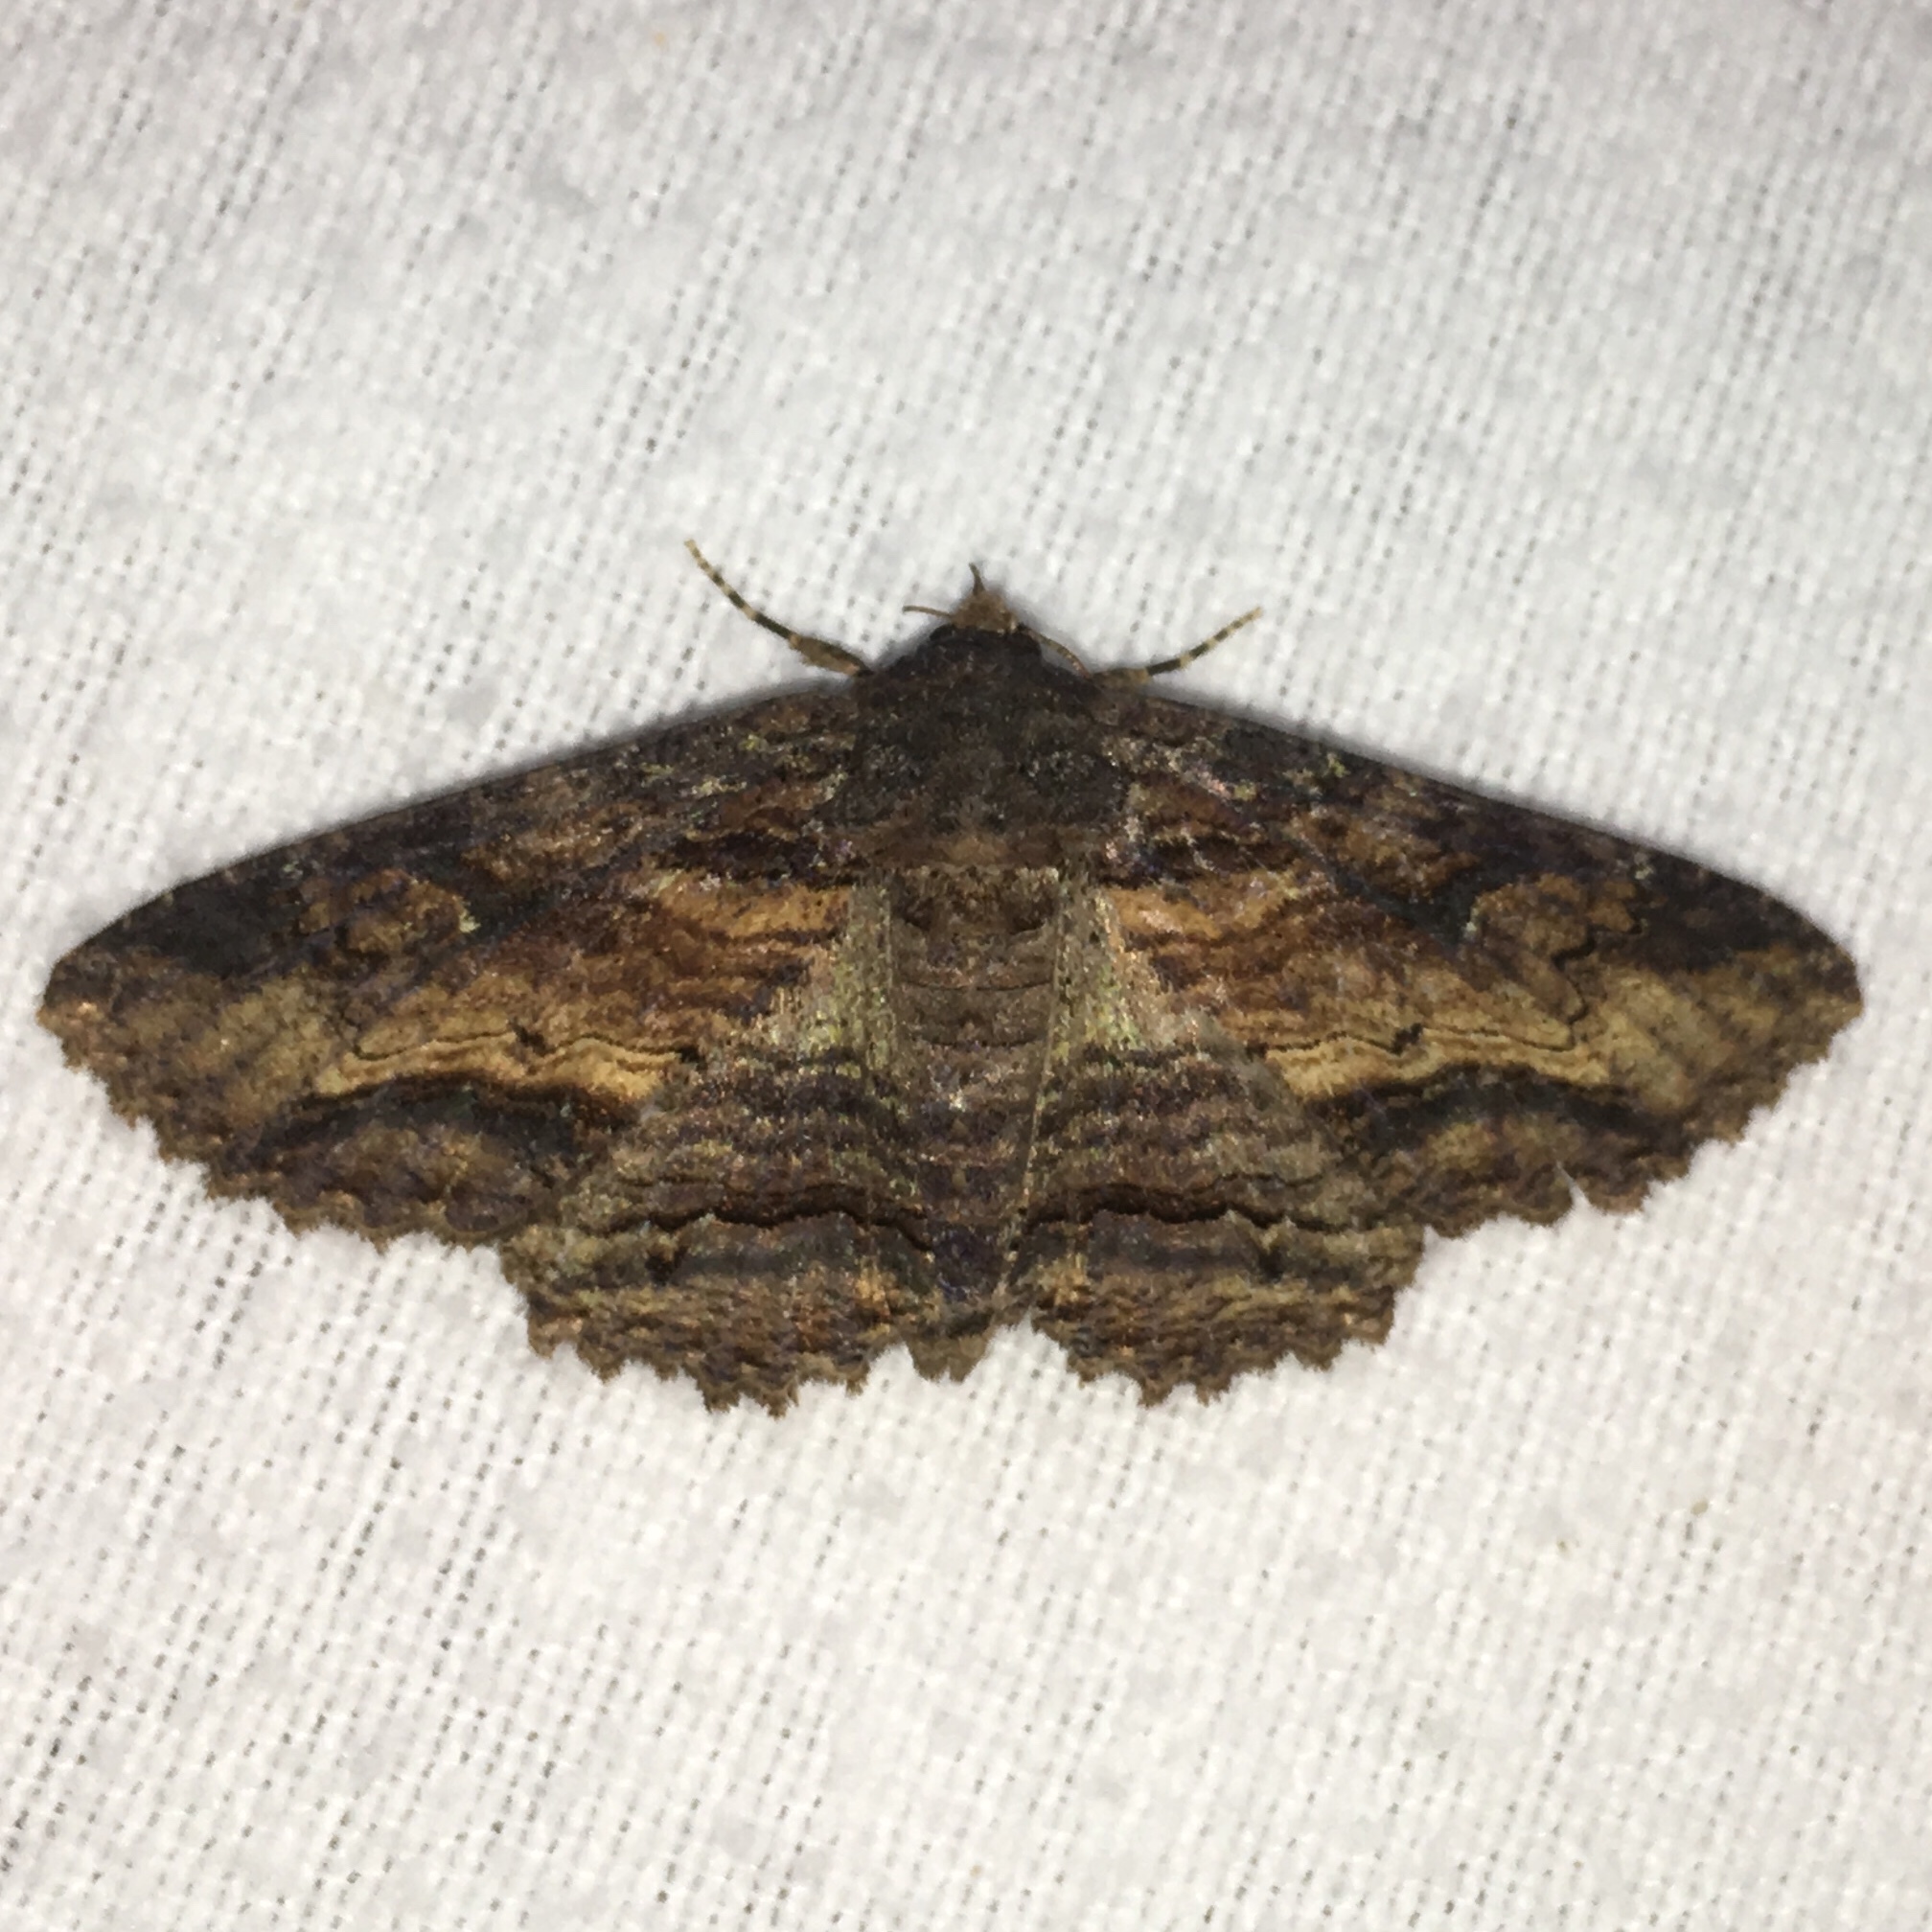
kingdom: Animalia
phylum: Arthropoda
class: Insecta
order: Lepidoptera
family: Erebidae
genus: Zale
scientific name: Zale lunata
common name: Lunate zale moth
